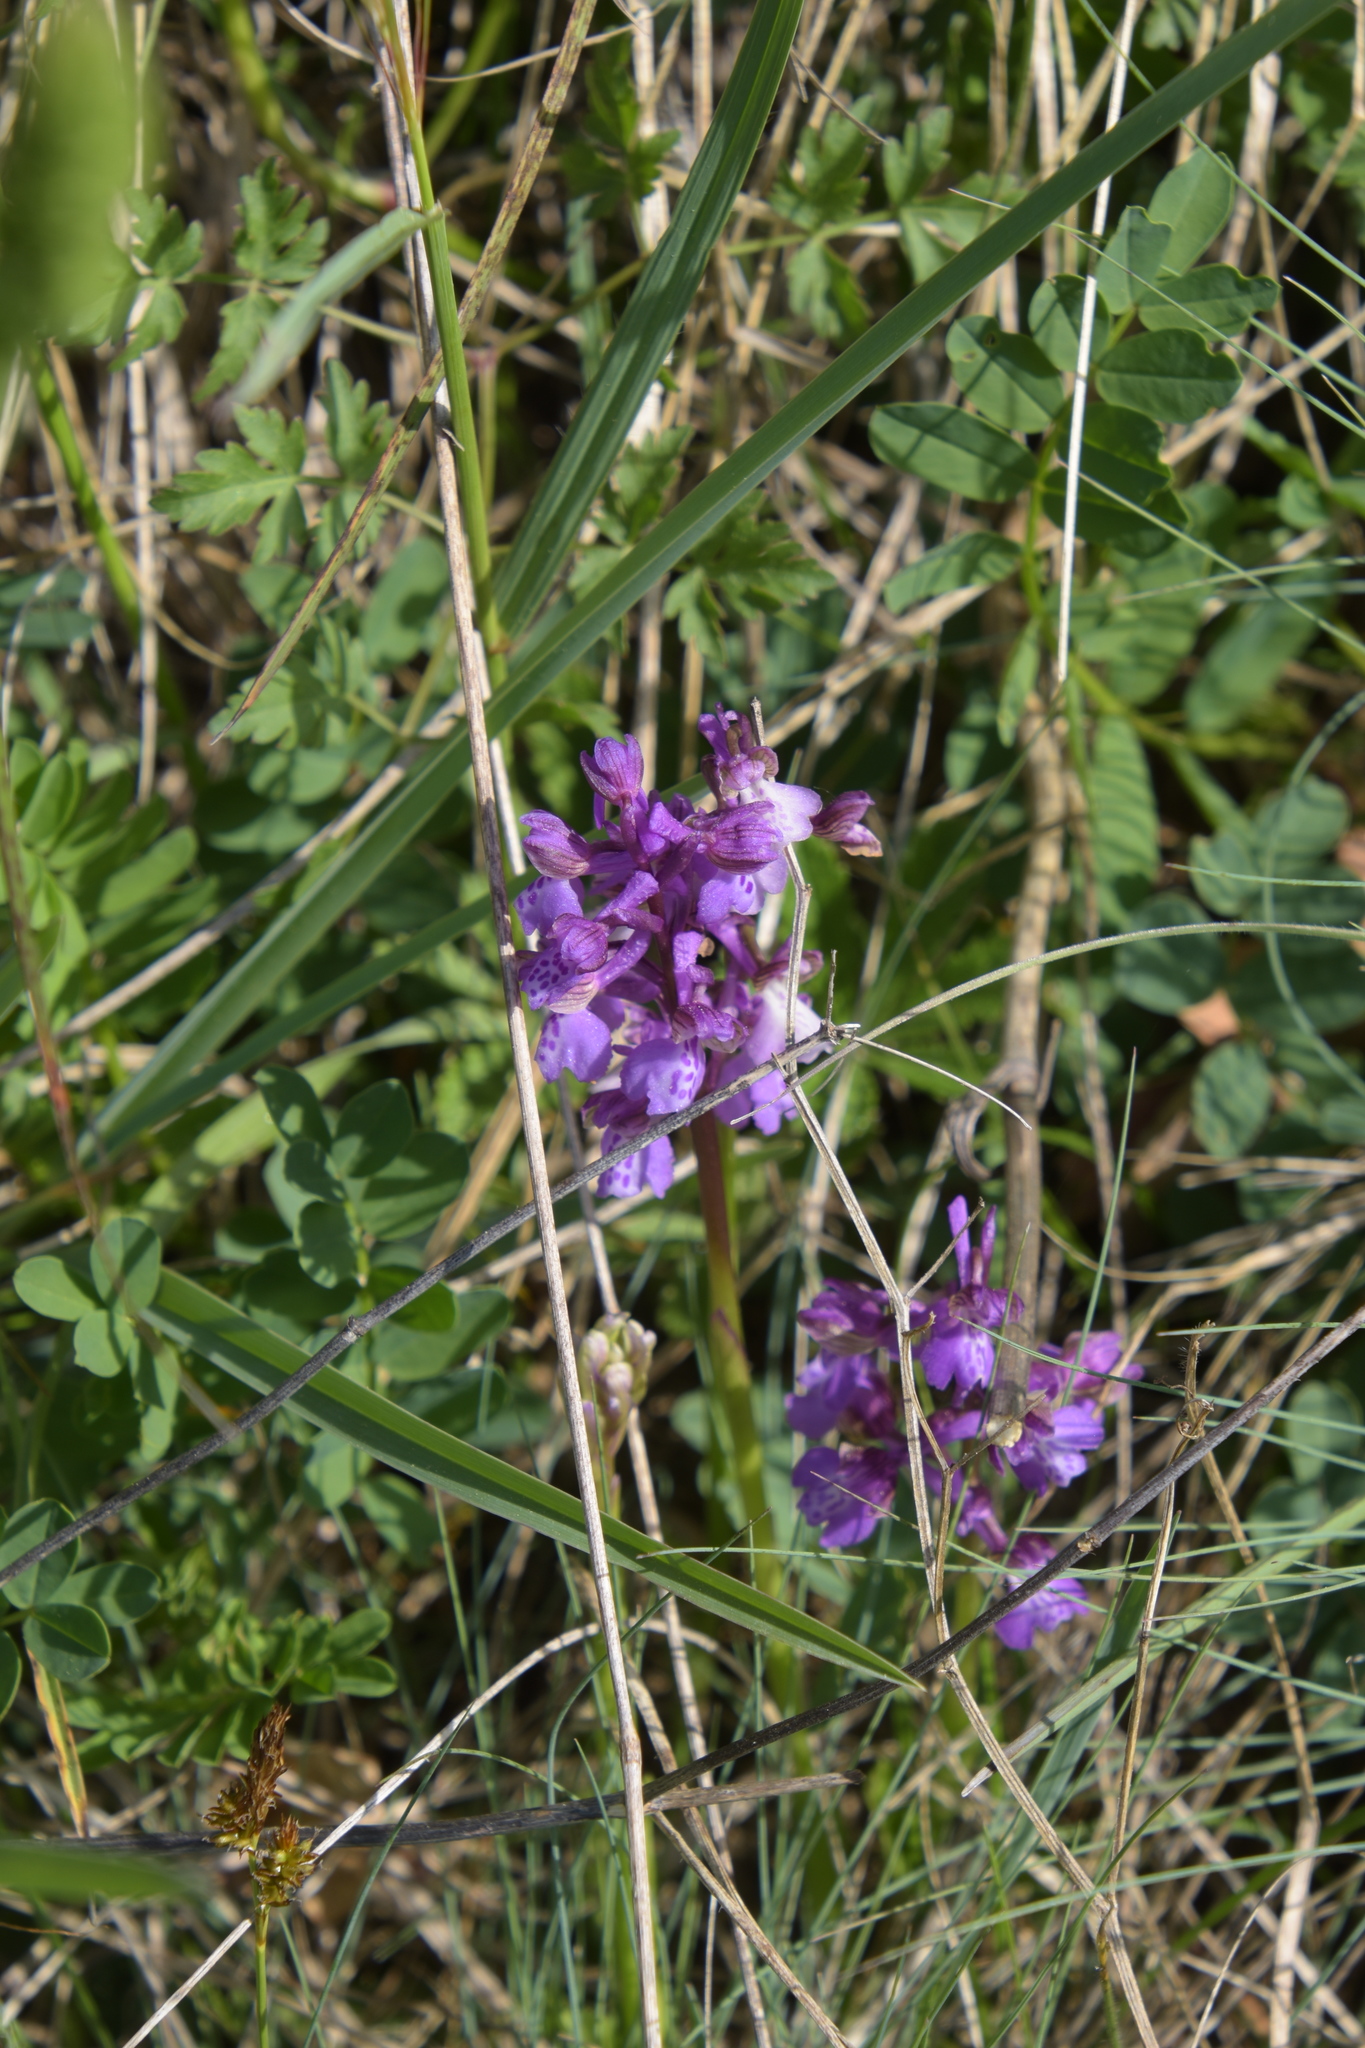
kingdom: Plantae
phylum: Tracheophyta
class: Liliopsida
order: Asparagales
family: Orchidaceae
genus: Anacamptis
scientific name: Anacamptis morio
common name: Green-winged orchid
